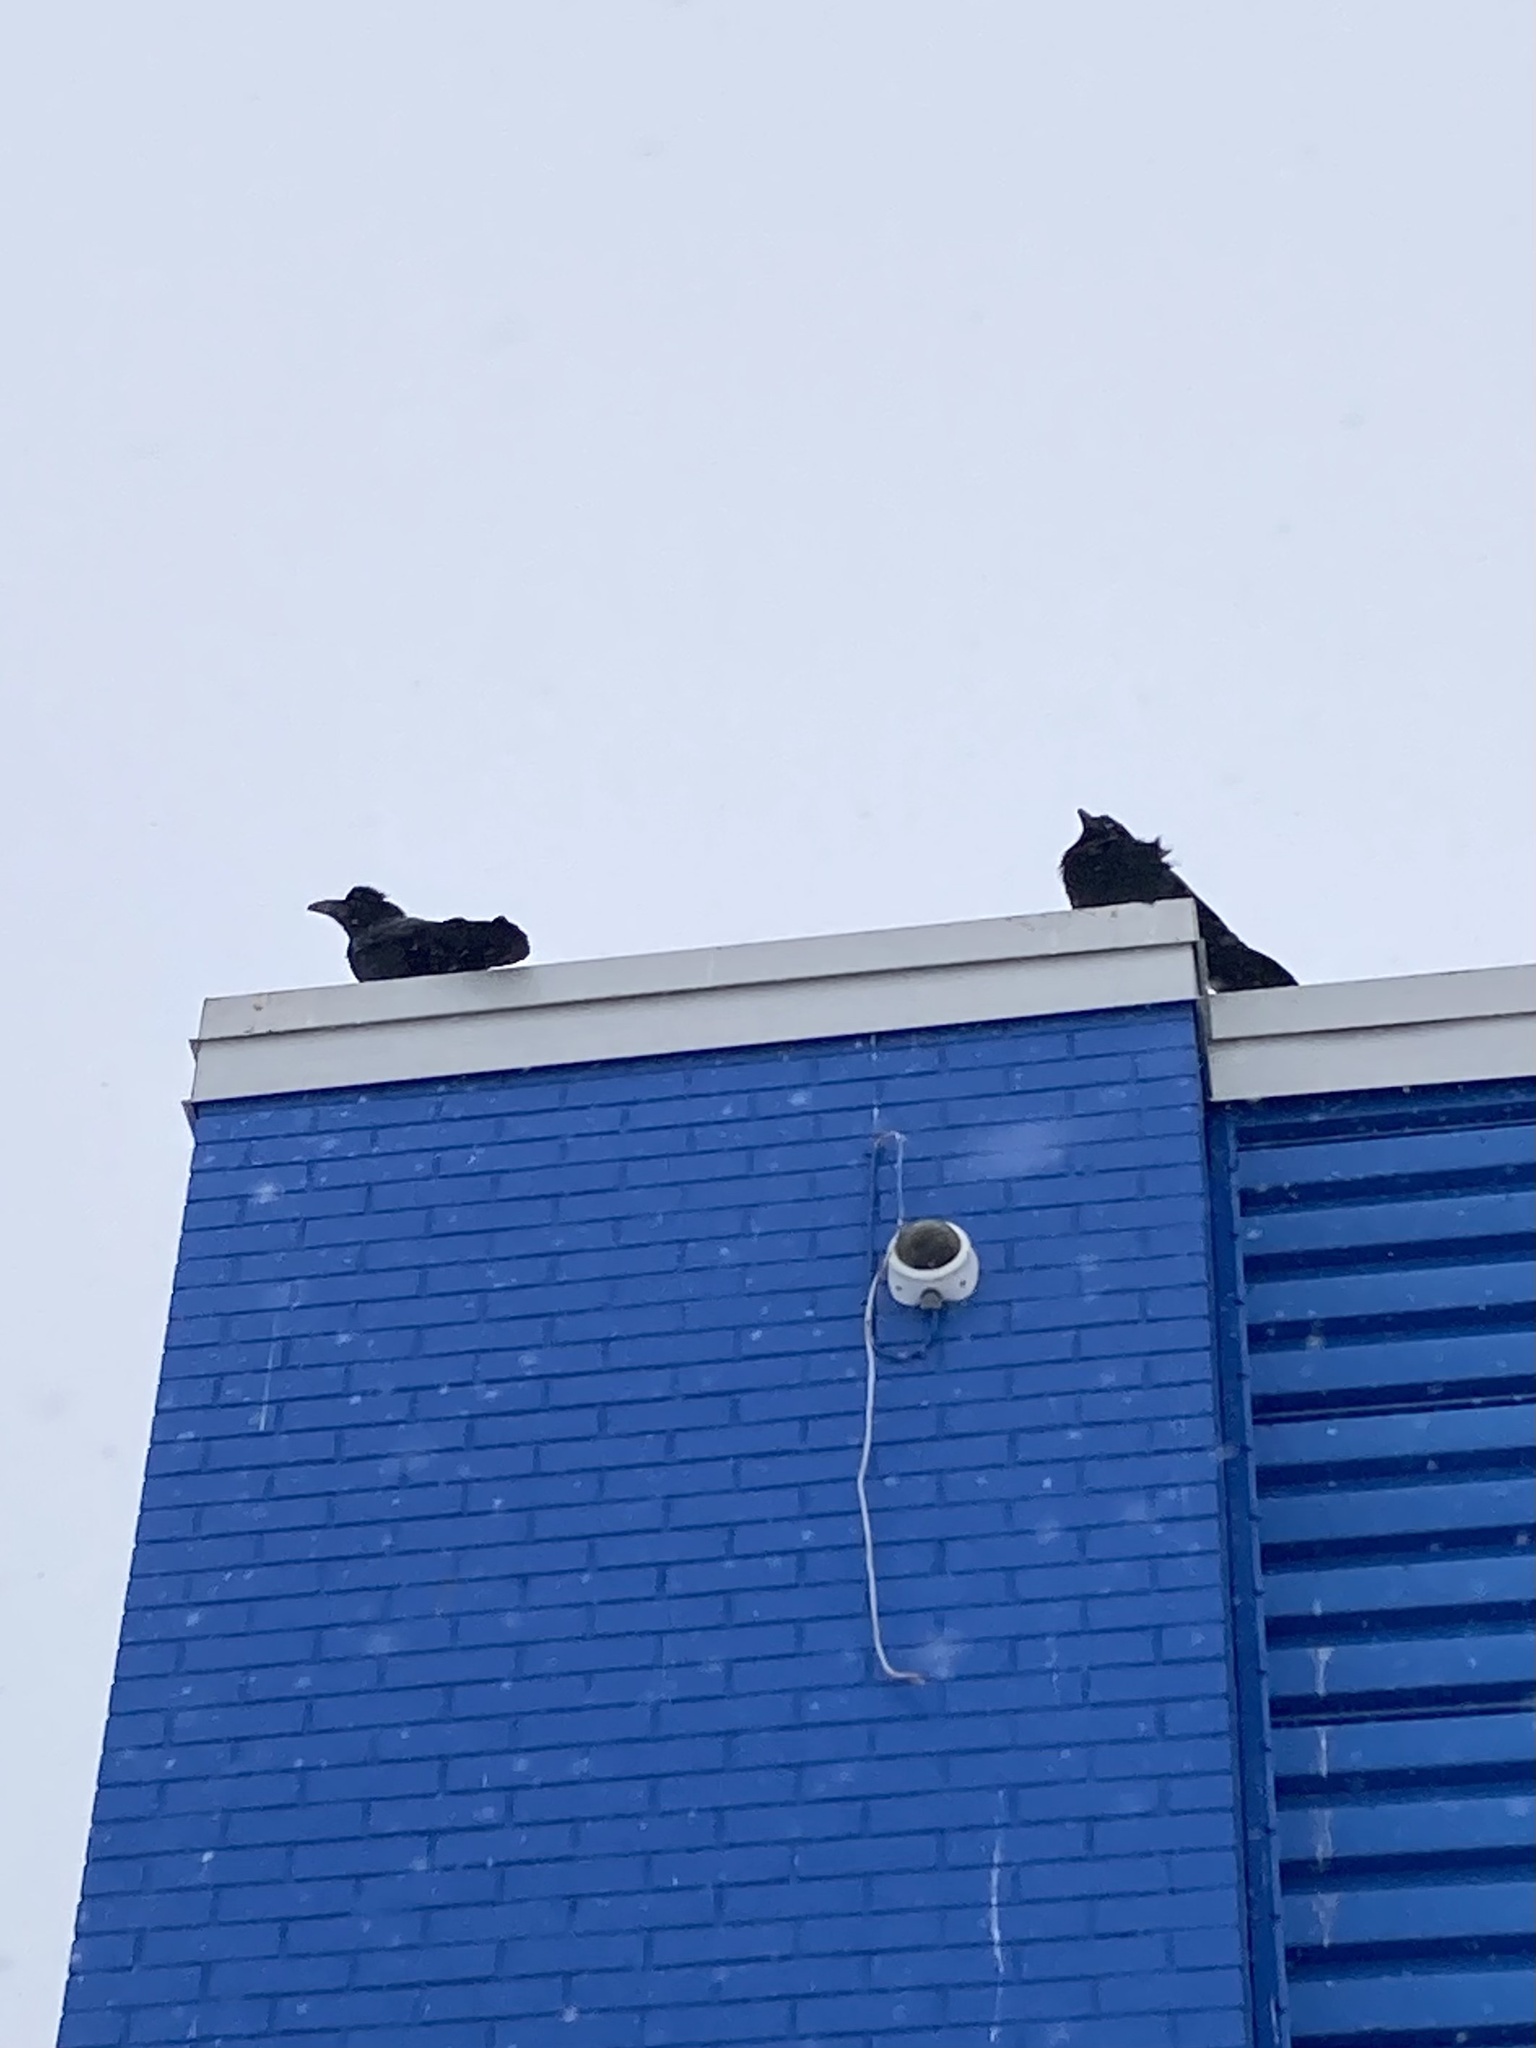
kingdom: Animalia
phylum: Chordata
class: Aves
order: Passeriformes
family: Corvidae
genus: Corvus
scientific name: Corvus corax
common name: Common raven
